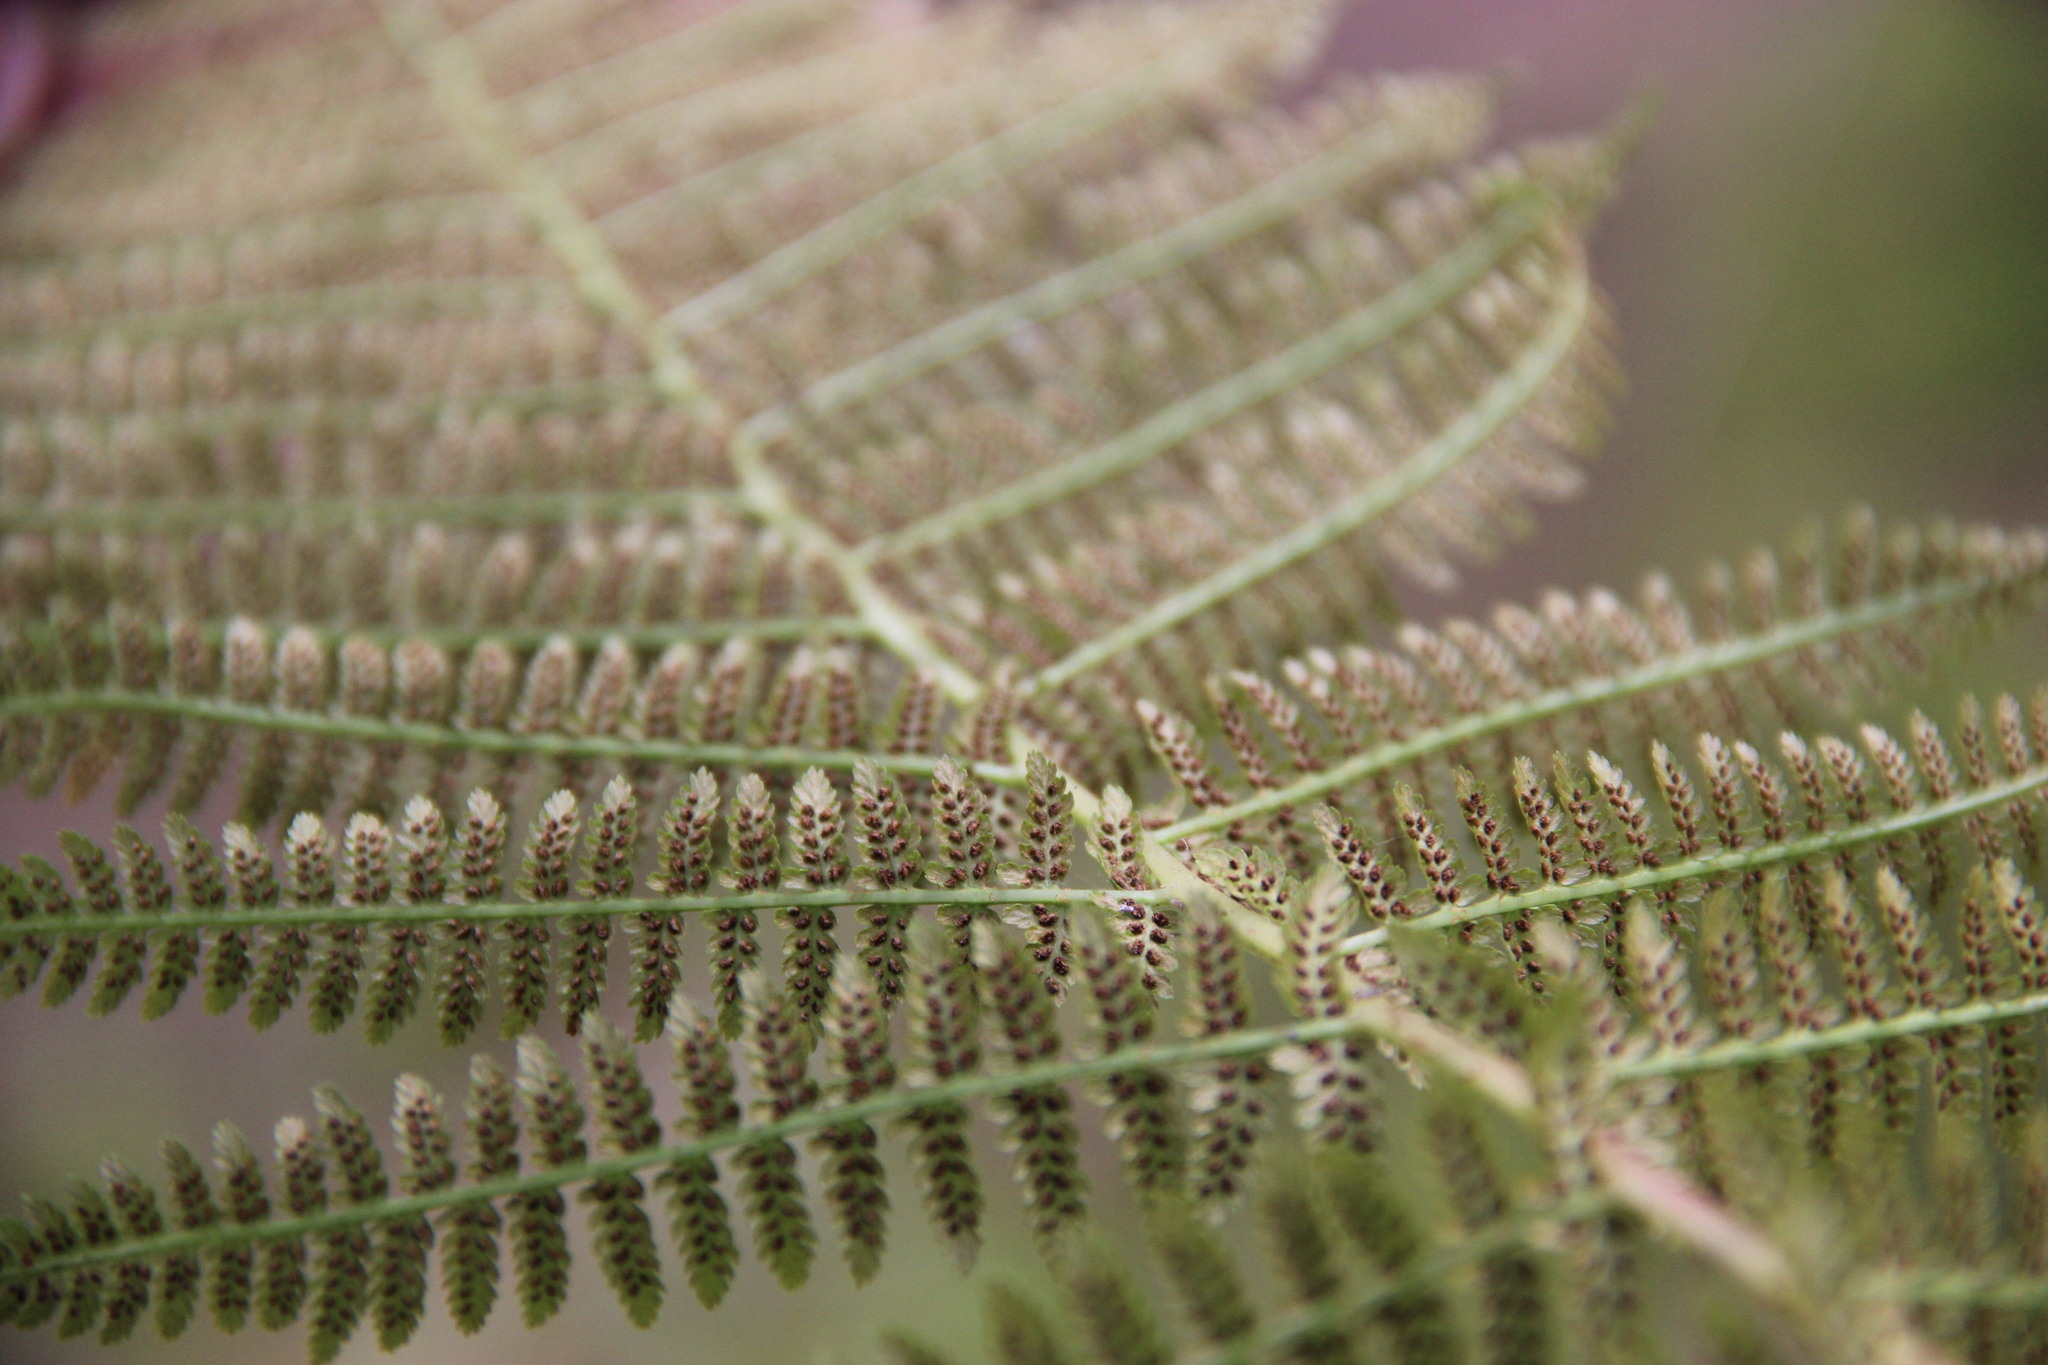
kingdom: Plantae
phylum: Tracheophyta
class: Polypodiopsida
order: Polypodiales
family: Athyriaceae
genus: Athyrium
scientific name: Athyrium filix-femina
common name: Lady fern
